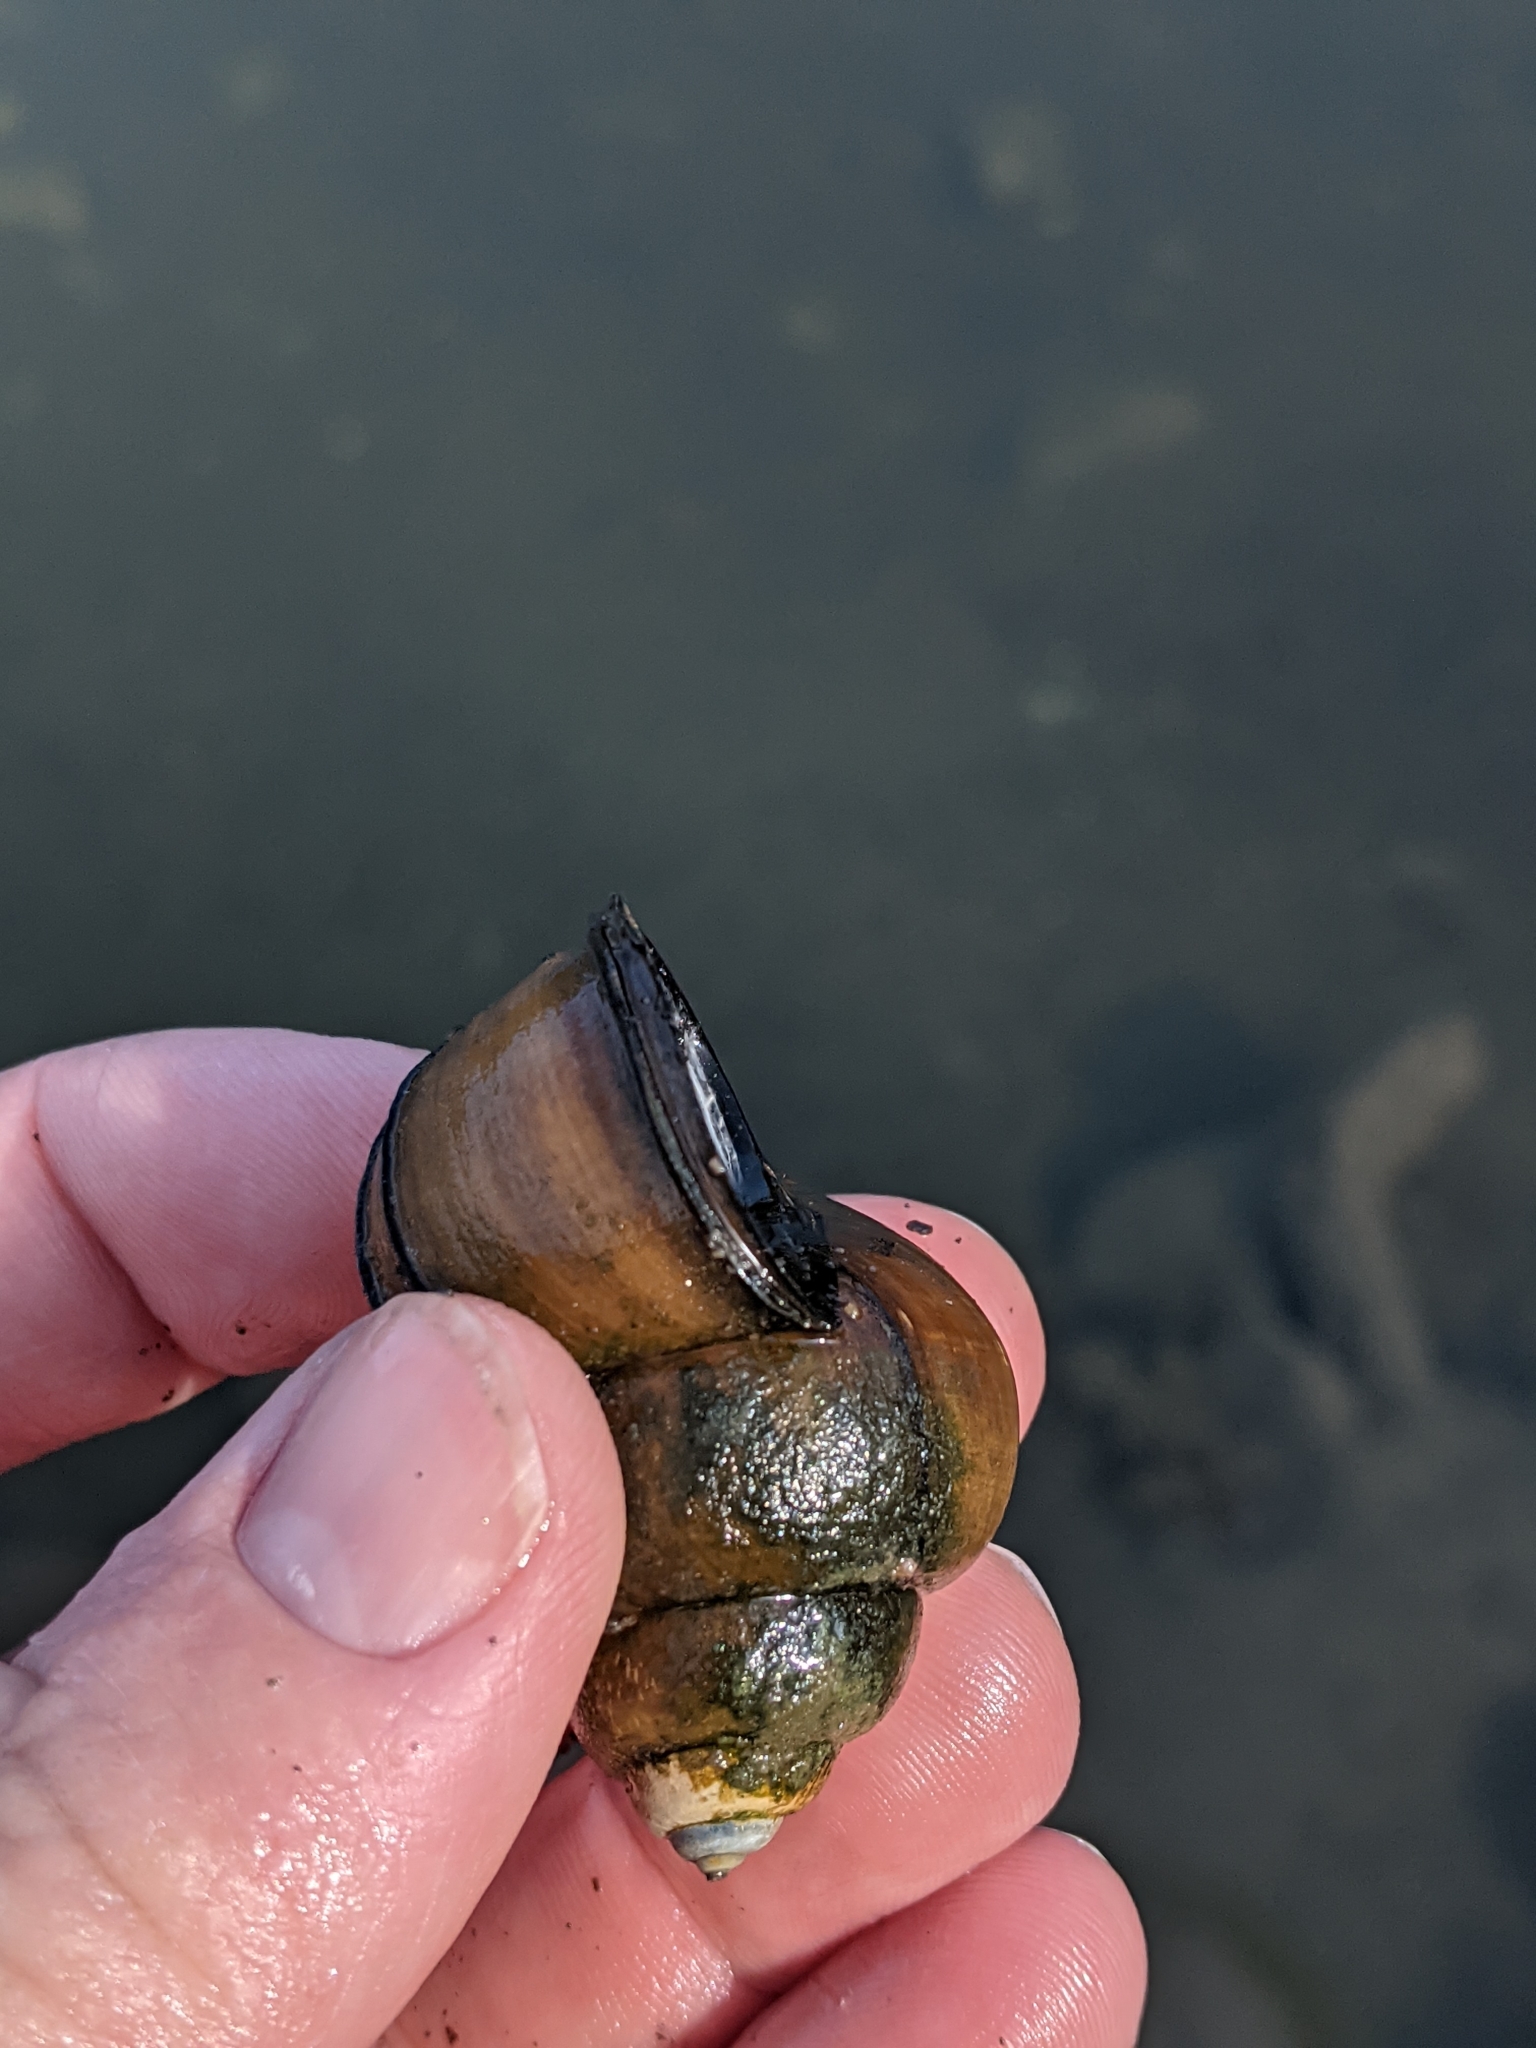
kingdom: Animalia
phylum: Mollusca
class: Gastropoda
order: Architaenioglossa
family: Viviparidae
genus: Cipangopaludina
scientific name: Cipangopaludina chinensis
